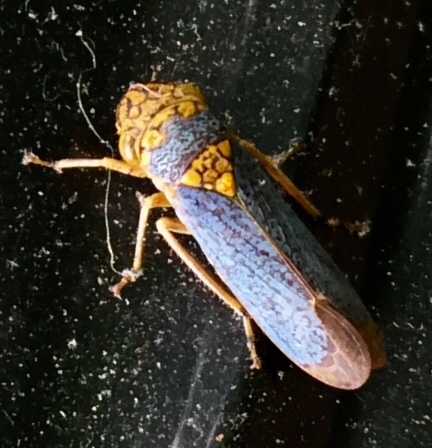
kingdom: Animalia
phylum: Arthropoda
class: Insecta
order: Hemiptera
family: Cicadellidae
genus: Oncometopia
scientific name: Oncometopia orbona
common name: Broad-headed sharpshooter
